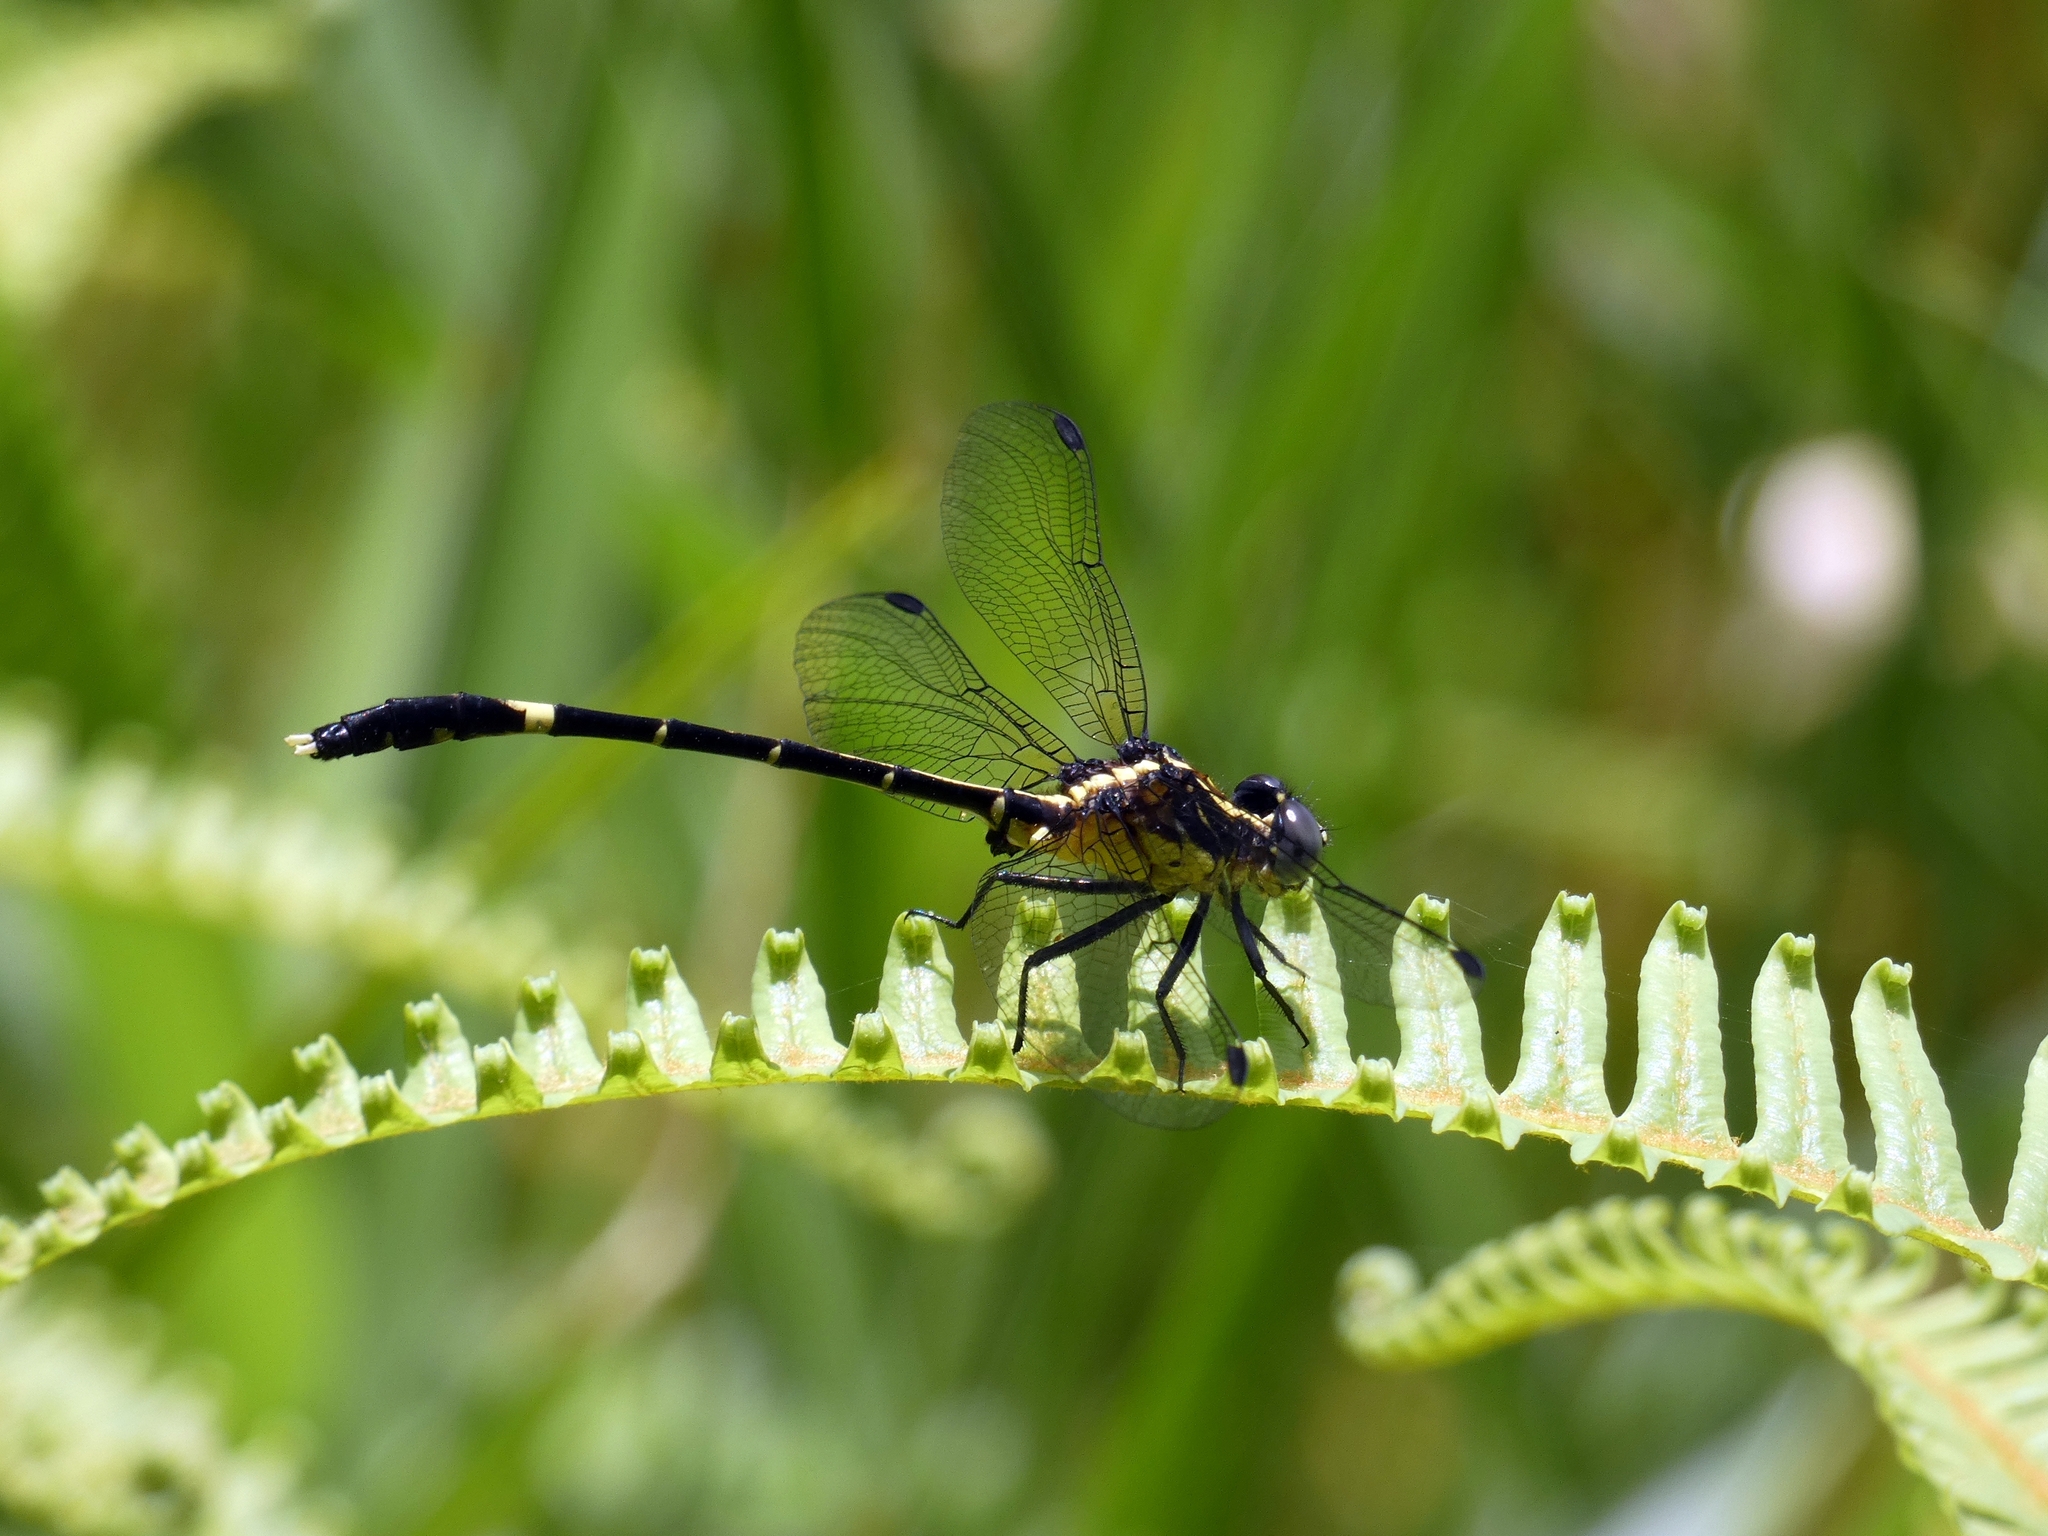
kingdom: Animalia
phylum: Arthropoda
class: Insecta
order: Odonata
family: Gomphidae
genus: Austrogomphus
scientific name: Austrogomphus prasinus
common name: Lemon-tipped hunter
